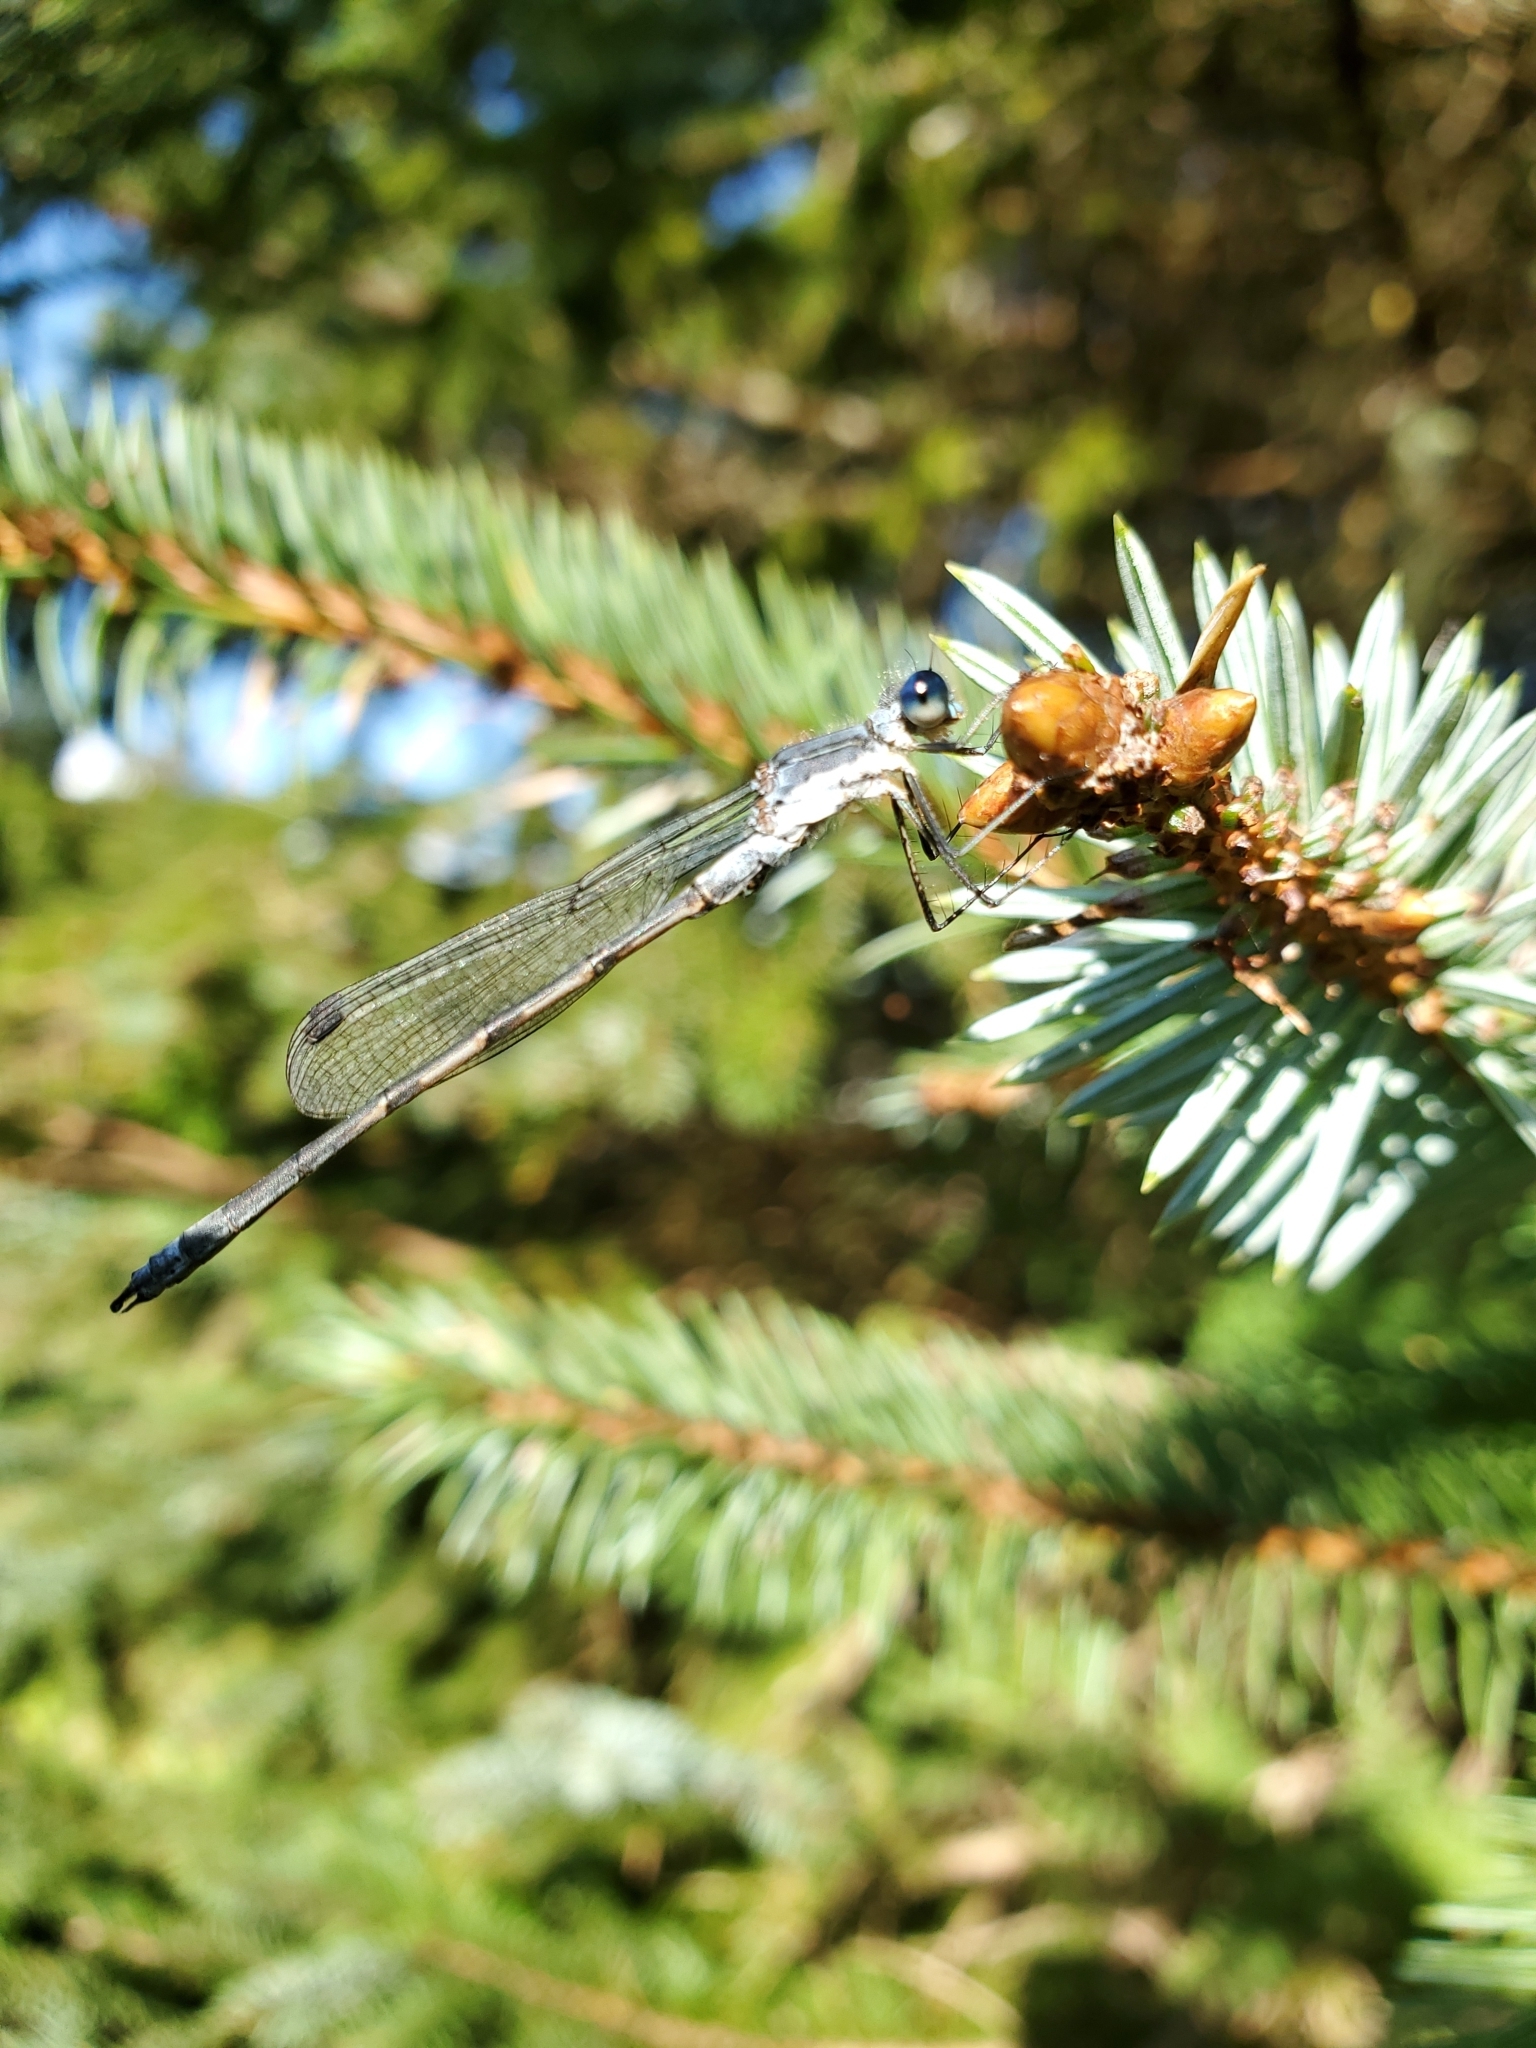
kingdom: Animalia
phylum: Arthropoda
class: Insecta
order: Odonata
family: Lestidae
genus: Lestes
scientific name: Lestes disjunctus
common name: Northern spreadwing
